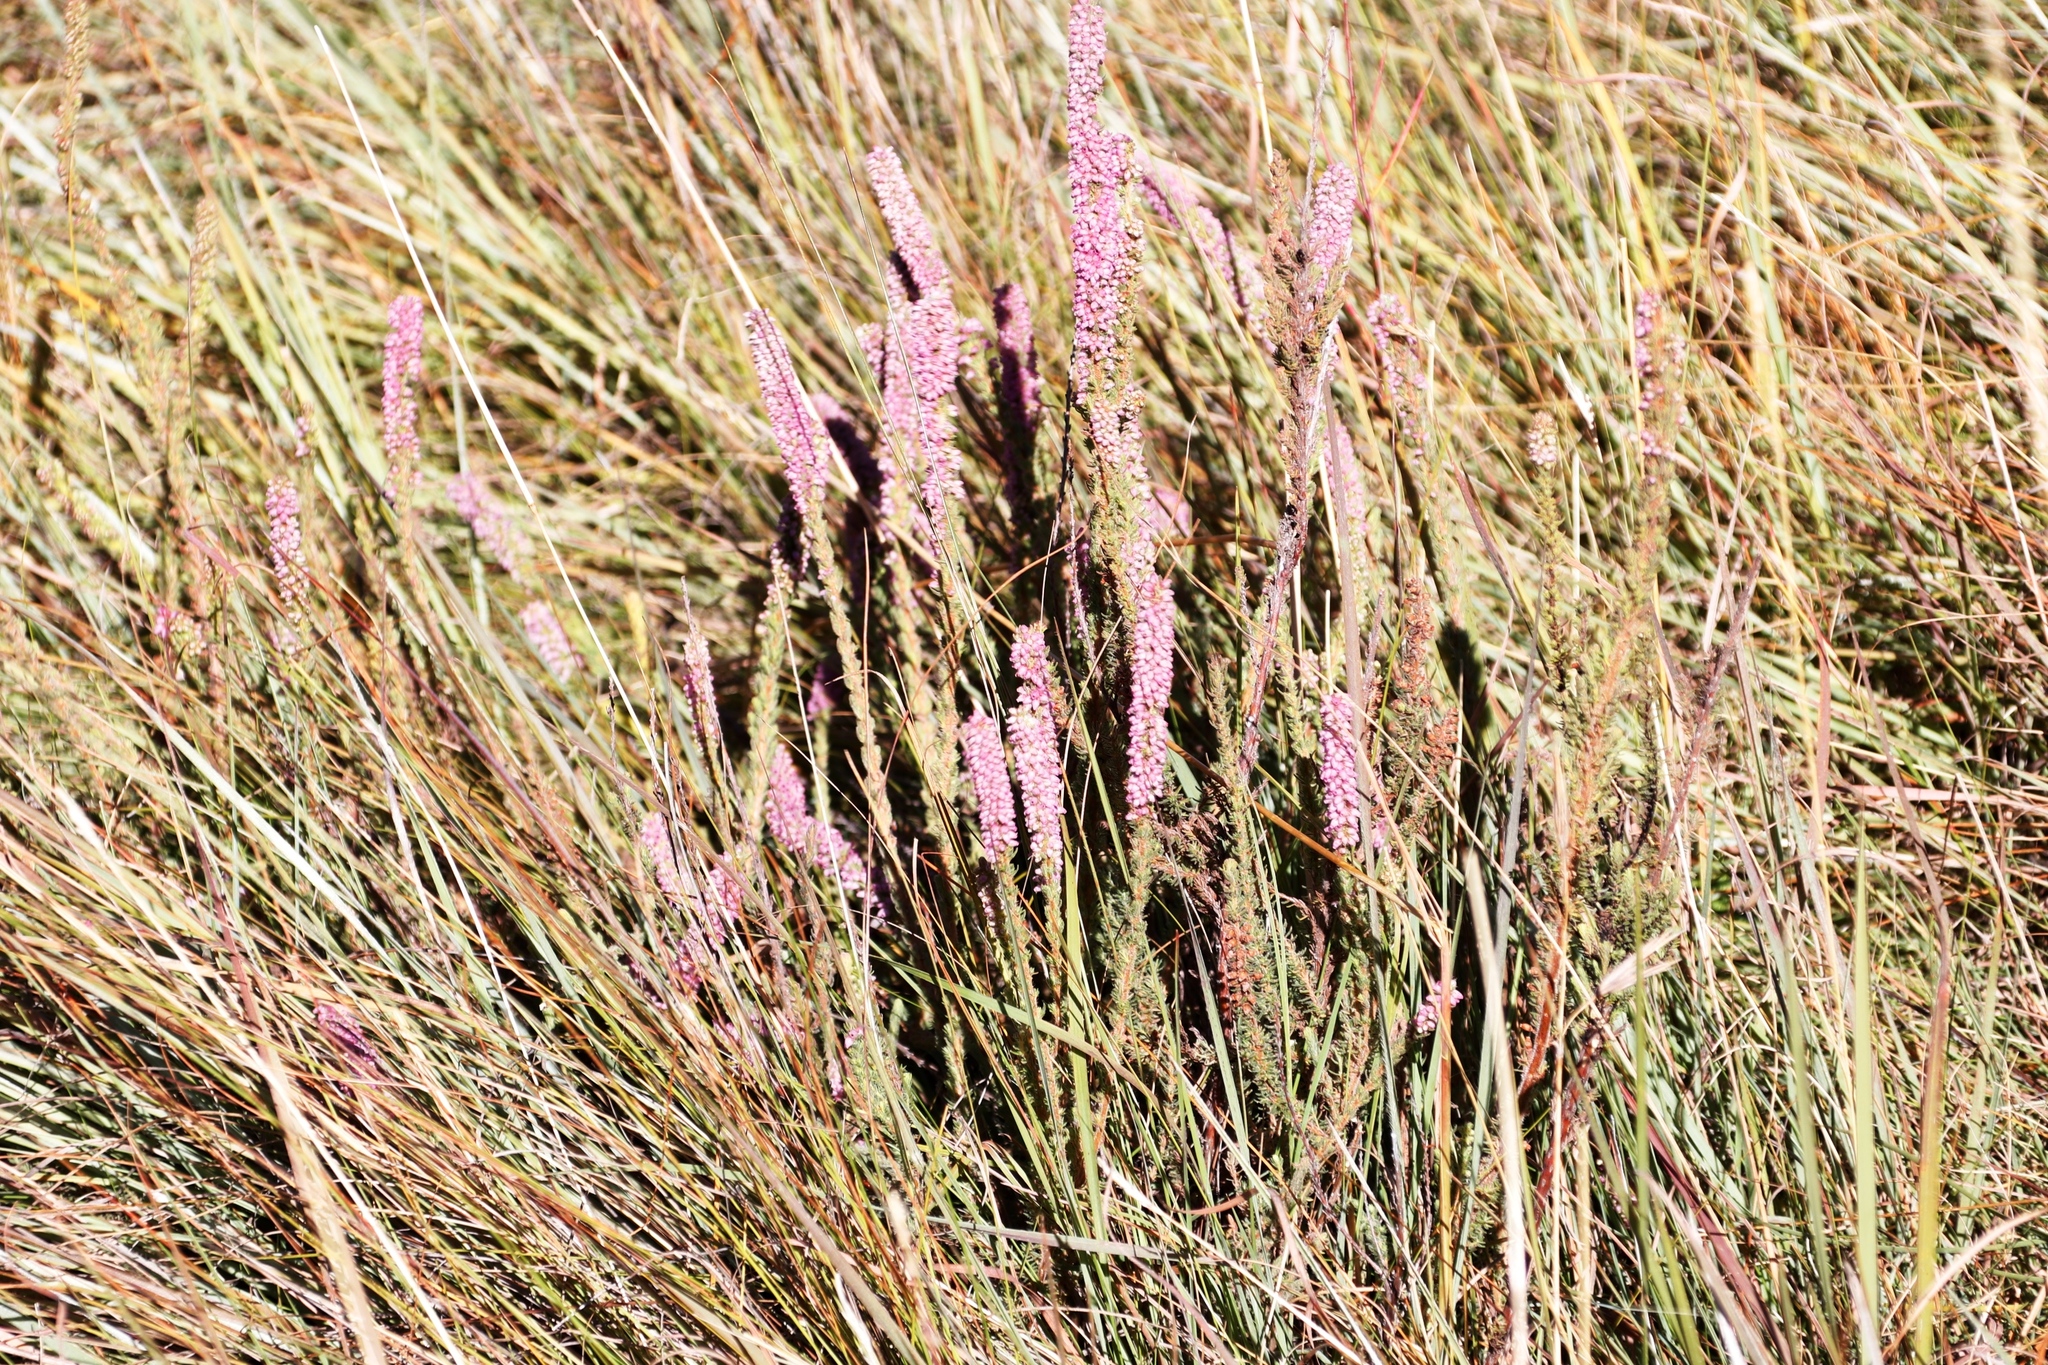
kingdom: Plantae
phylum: Tracheophyta
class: Magnoliopsida
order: Ericales
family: Ericaceae
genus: Erica
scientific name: Erica alopecurus
